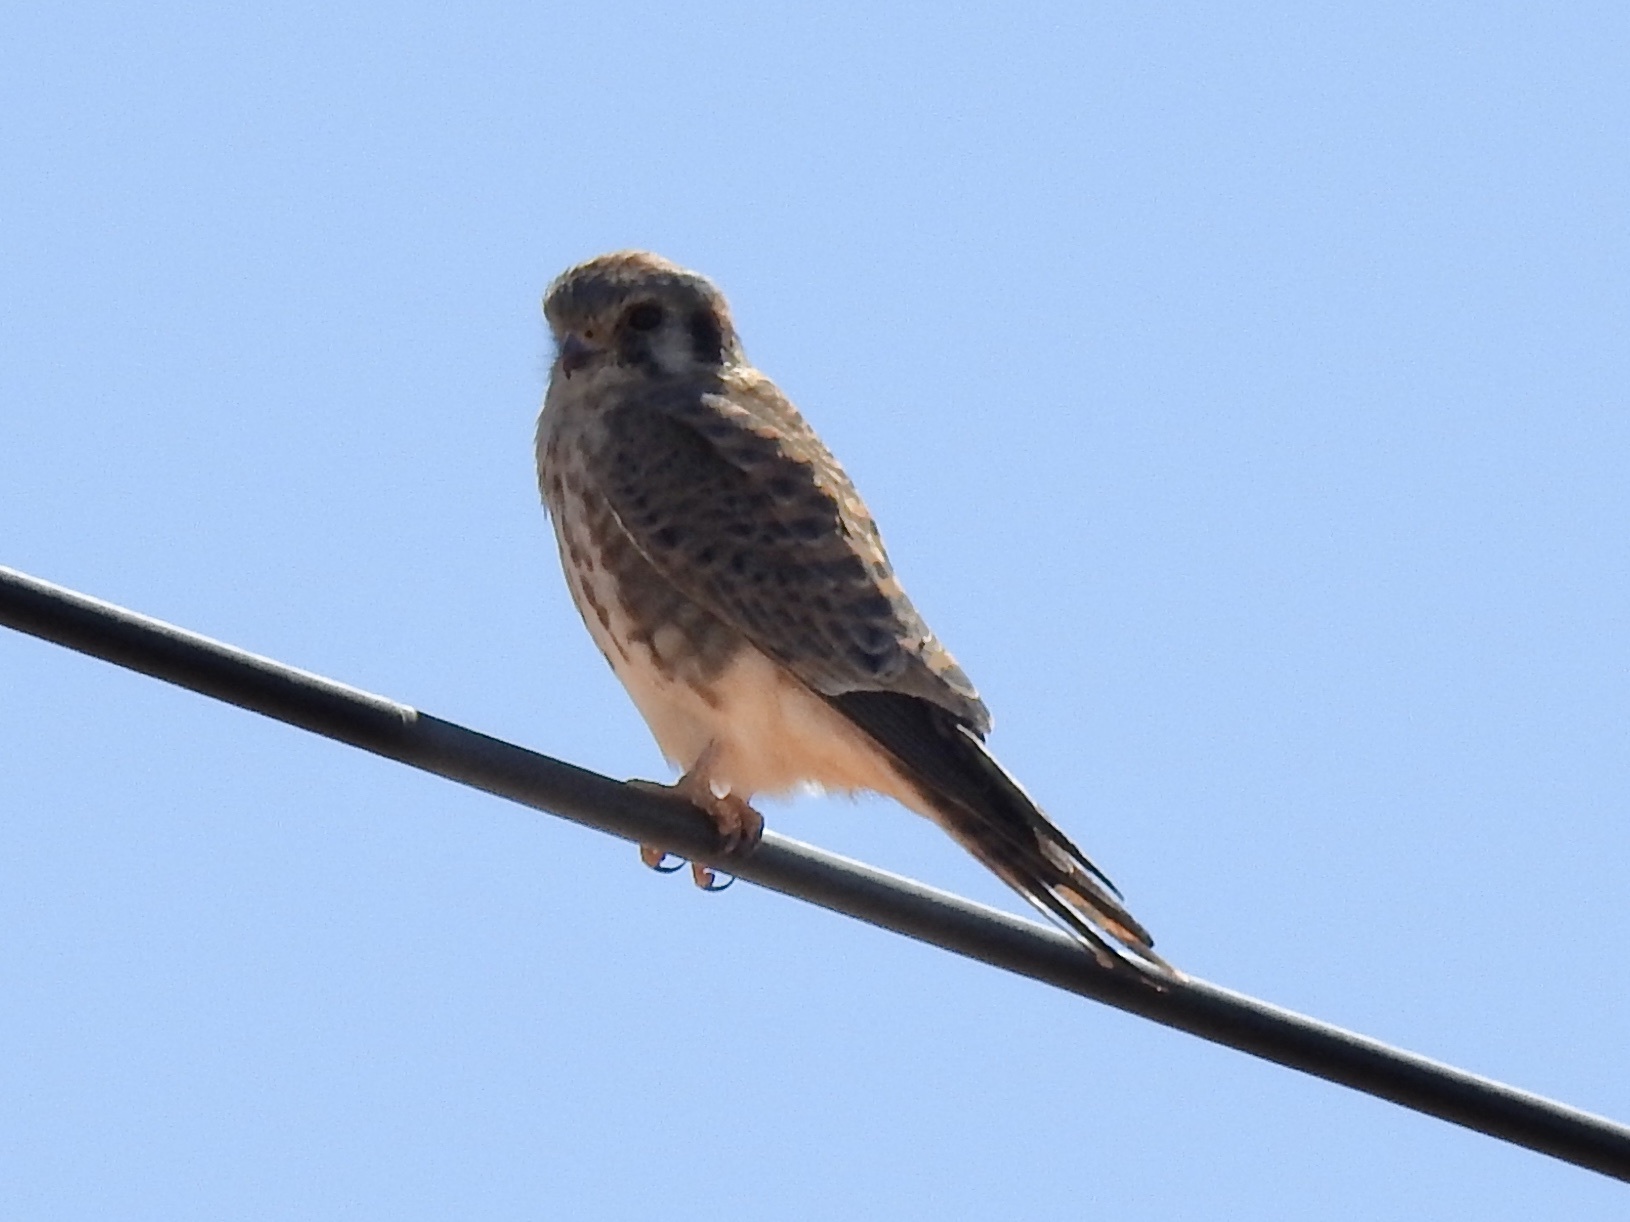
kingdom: Animalia
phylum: Chordata
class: Aves
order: Falconiformes
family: Falconidae
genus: Falco
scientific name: Falco sparverius
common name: American kestrel
